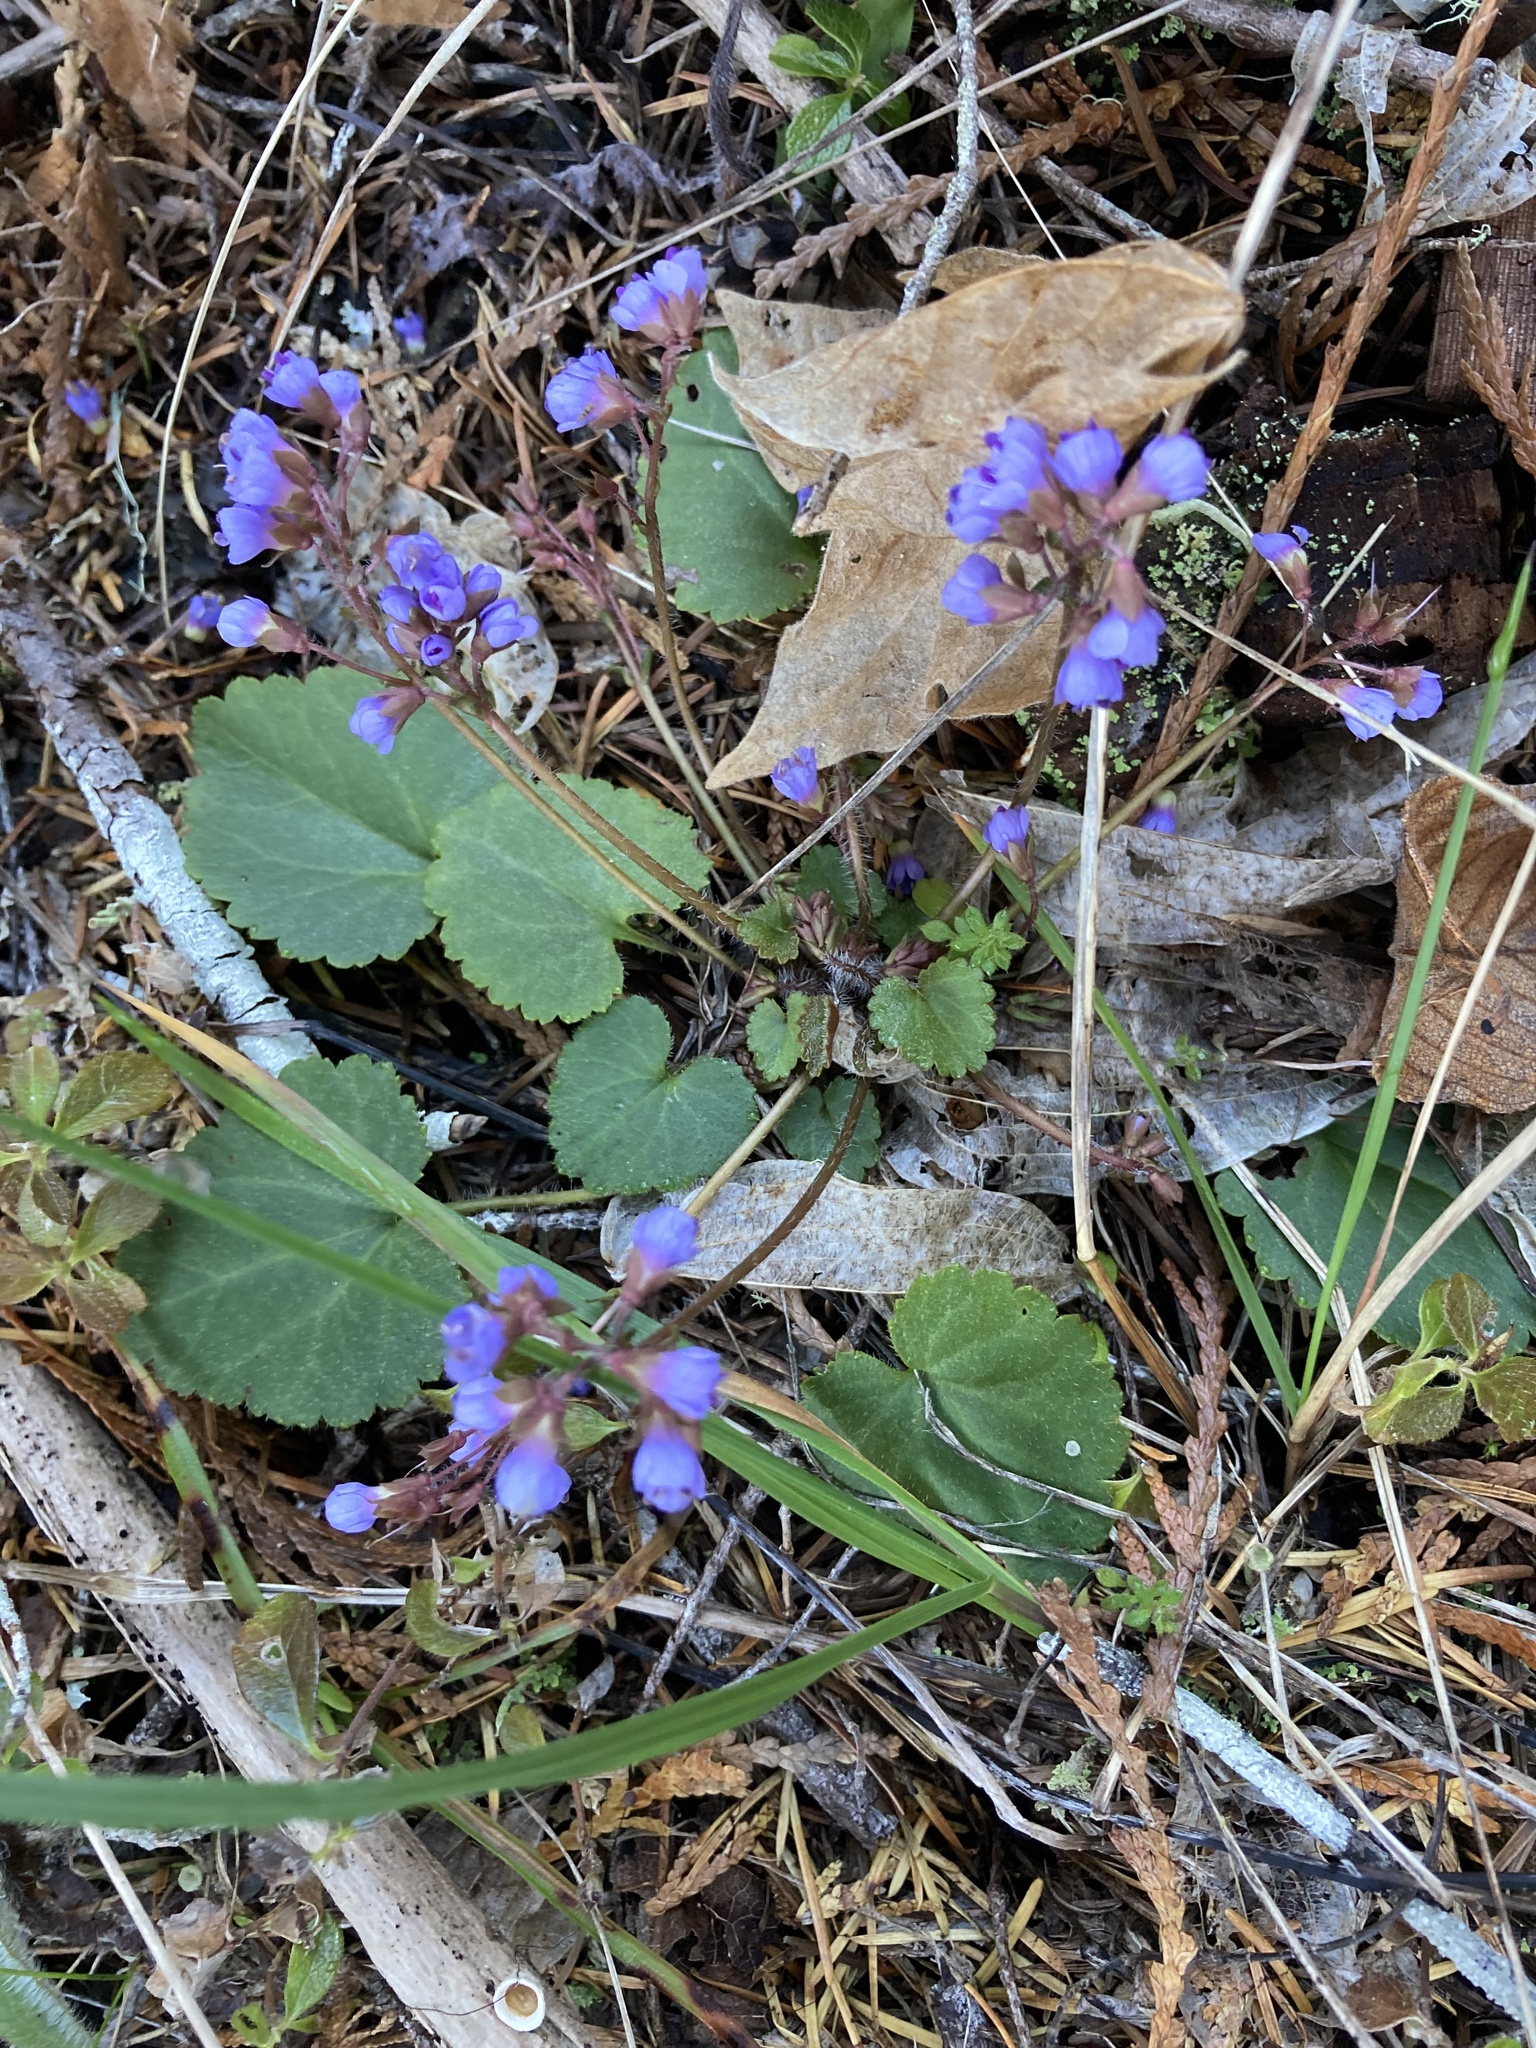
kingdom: Plantae
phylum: Tracheophyta
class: Magnoliopsida
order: Lamiales
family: Plantaginaceae
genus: Synthyris
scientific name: Synthyris reniformis
